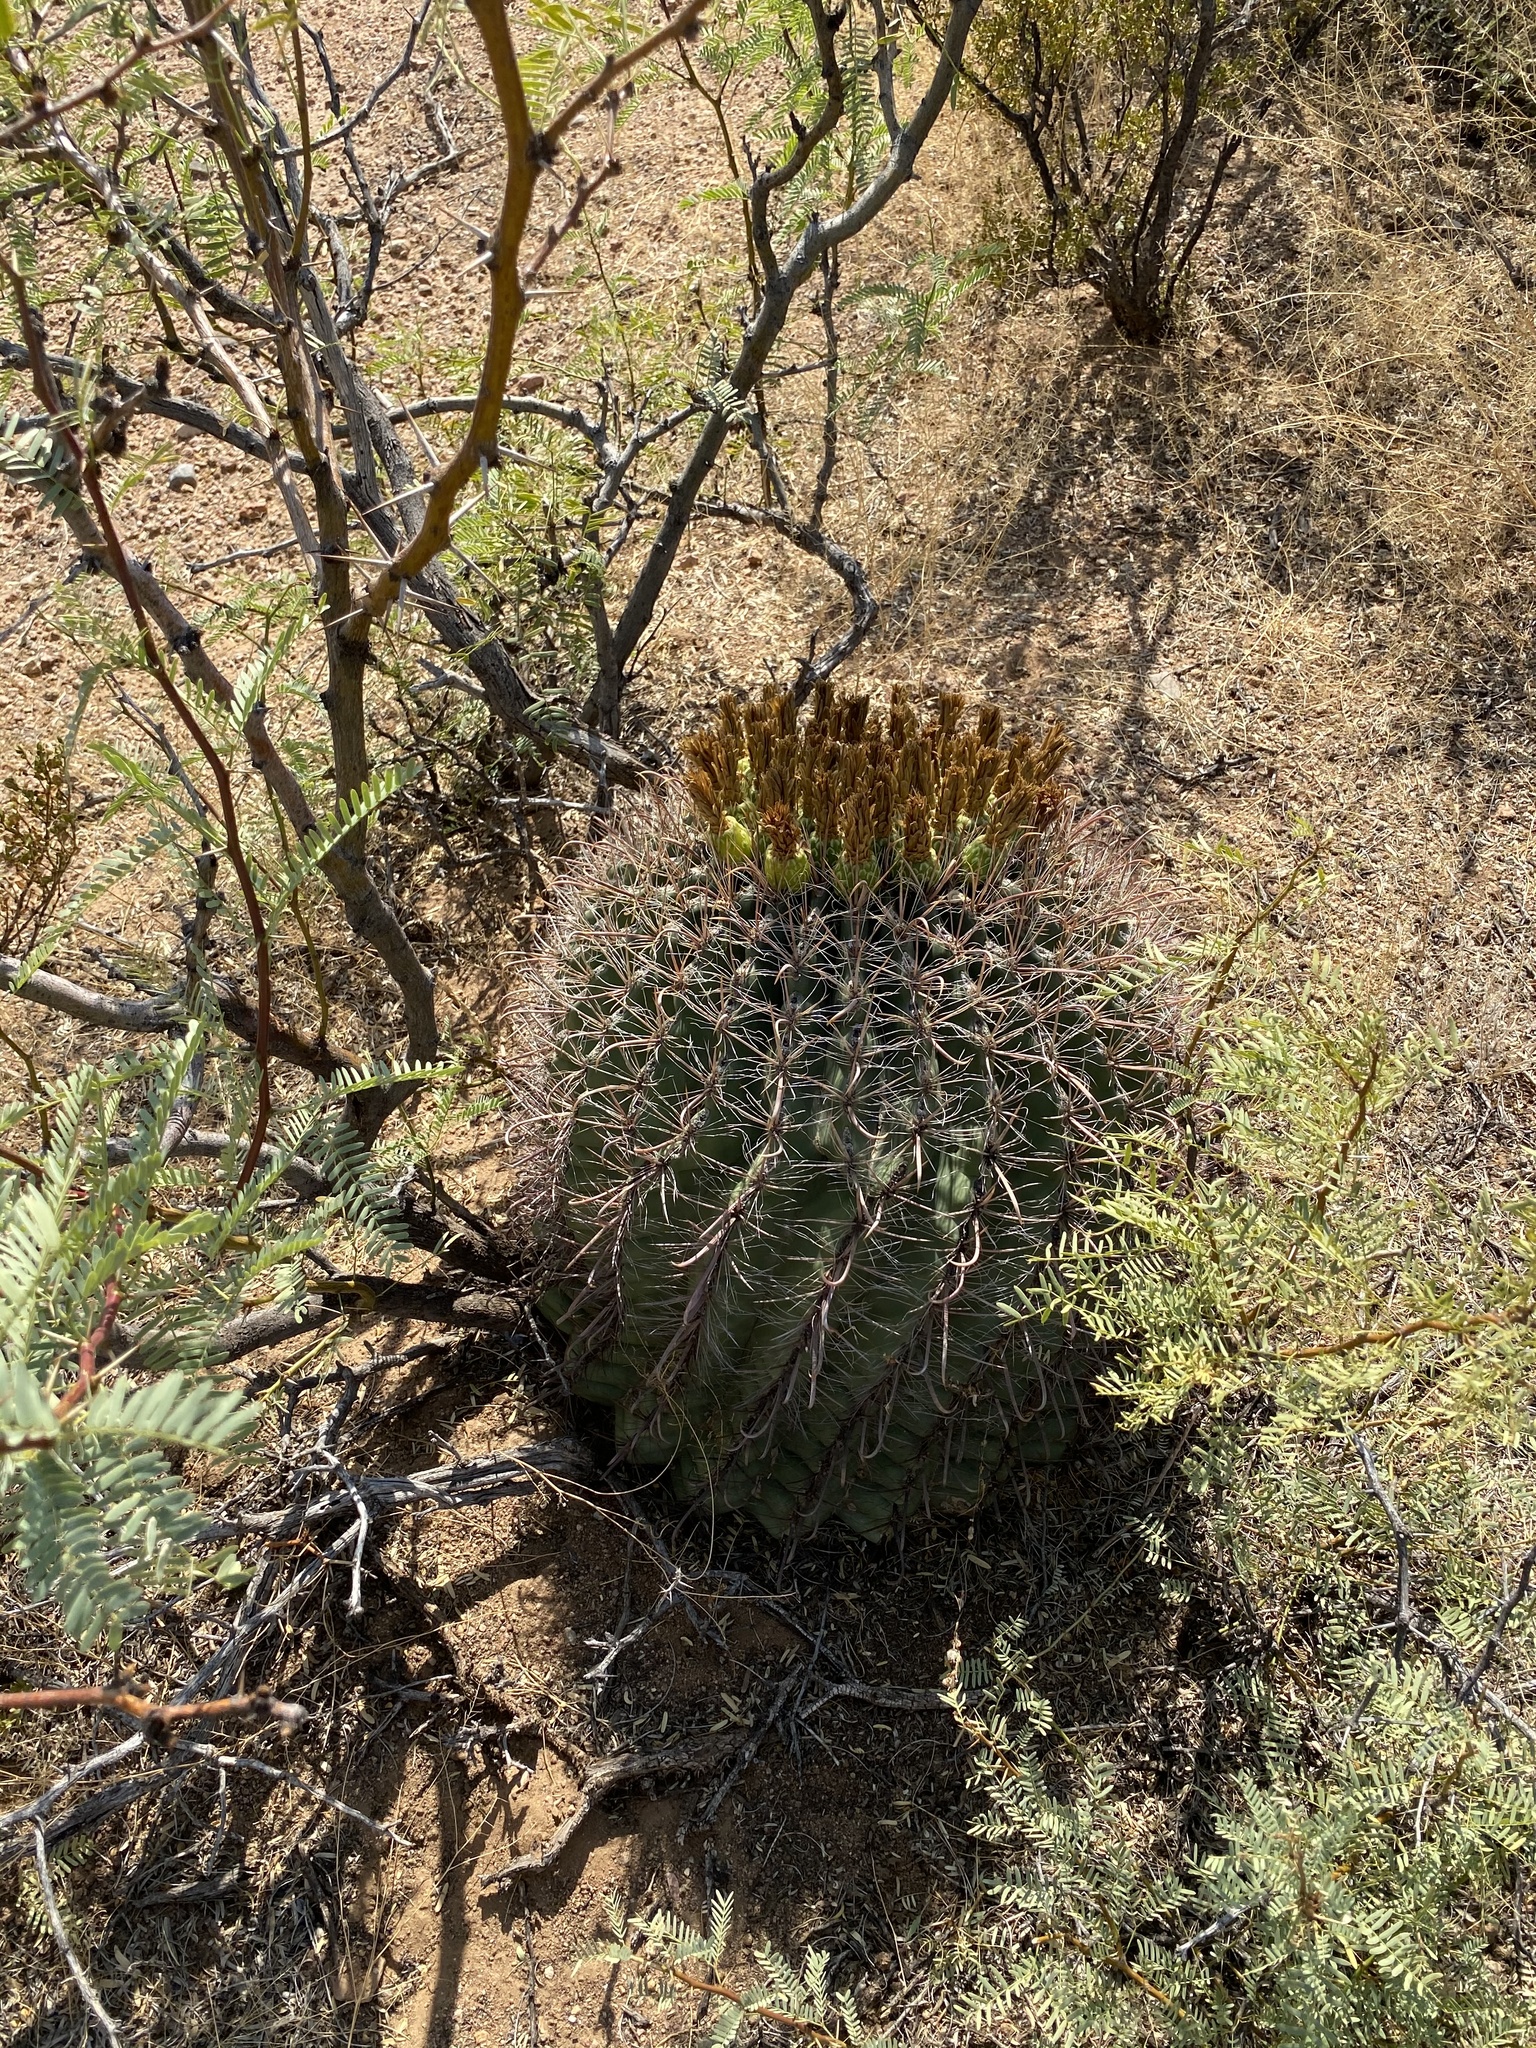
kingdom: Plantae
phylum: Tracheophyta
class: Magnoliopsida
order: Caryophyllales
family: Cactaceae
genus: Ferocactus
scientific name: Ferocactus wislizeni
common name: Candy barrel cactus
